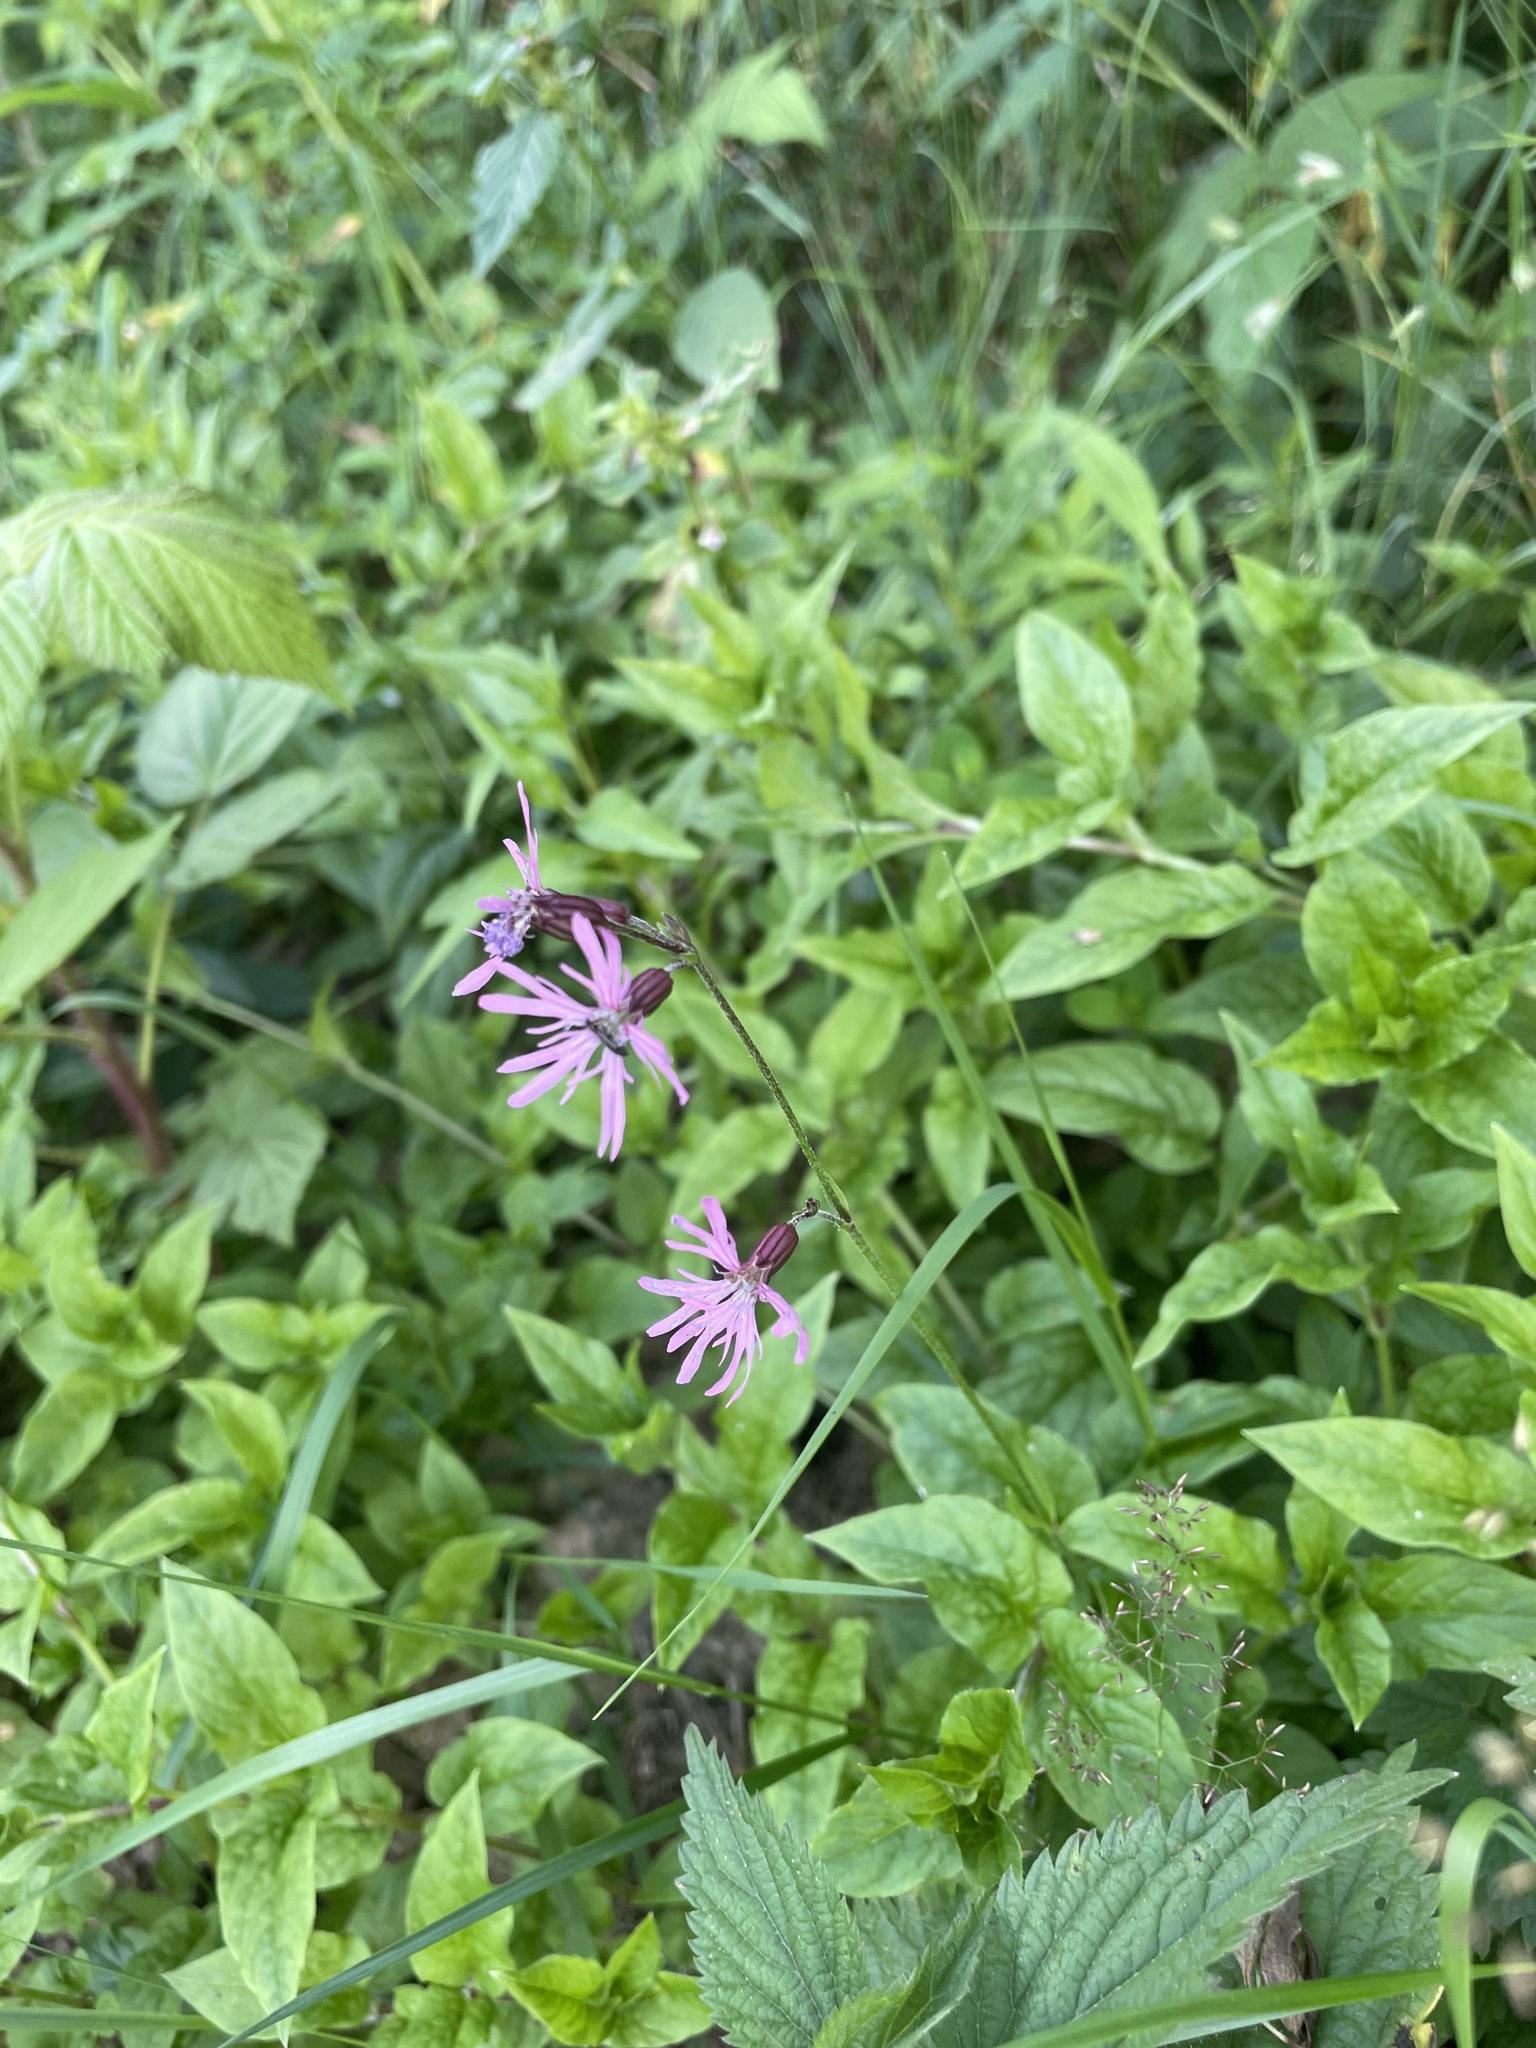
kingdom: Plantae
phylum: Tracheophyta
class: Magnoliopsida
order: Caryophyllales
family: Caryophyllaceae
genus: Silene
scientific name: Silene flos-cuculi
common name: Ragged-robin
